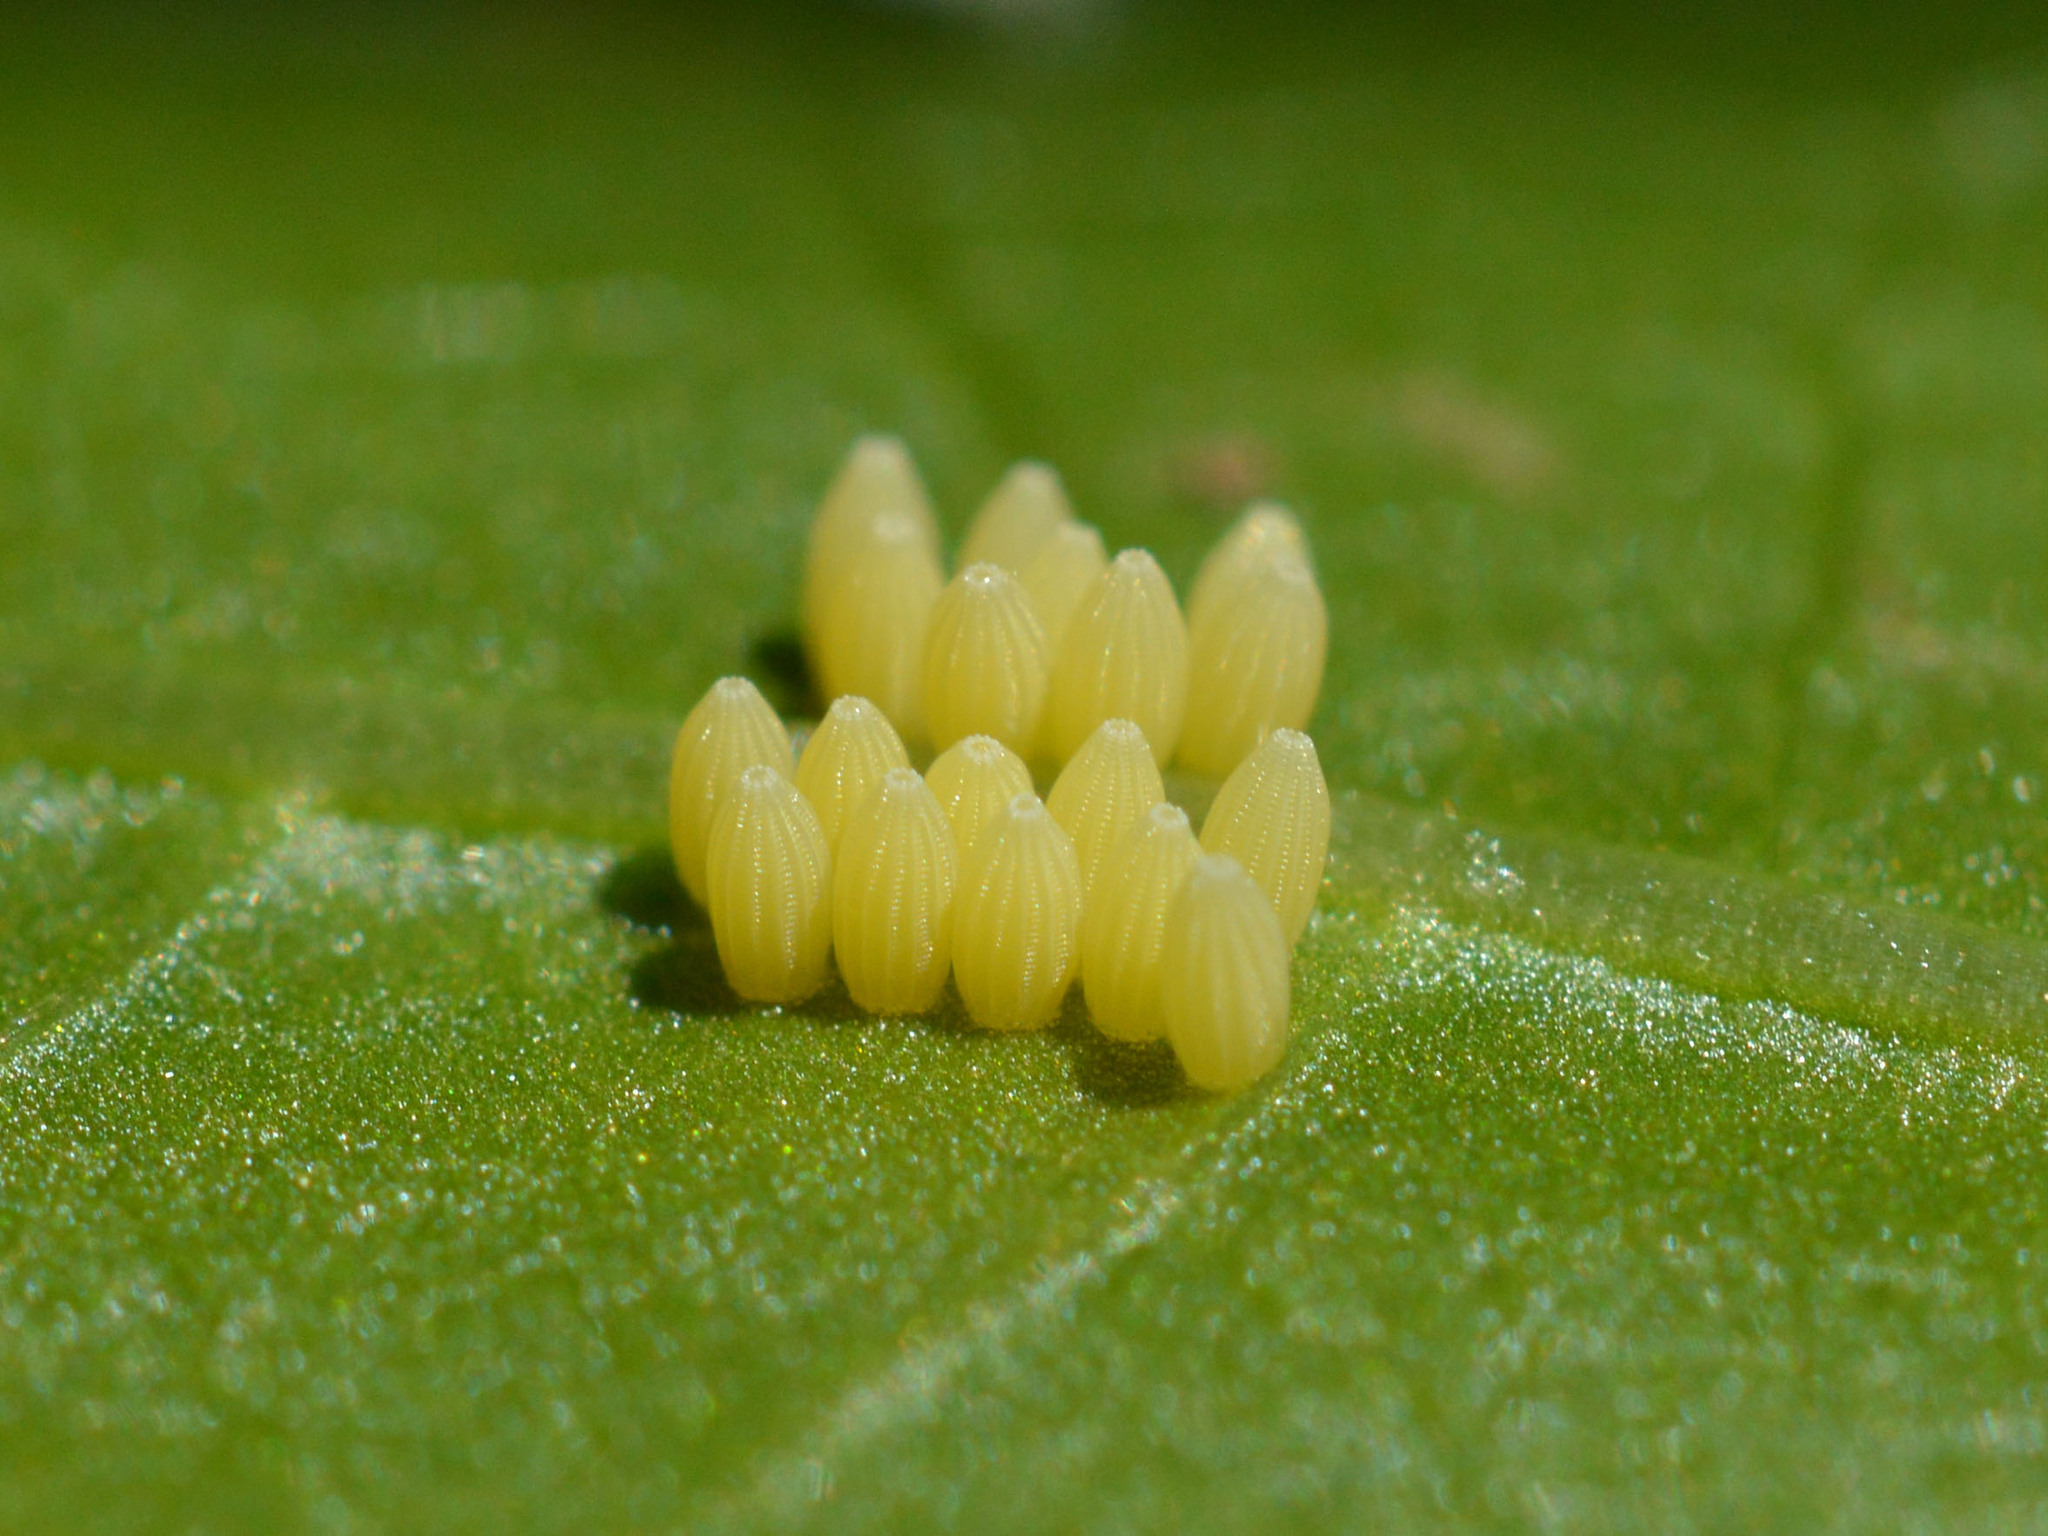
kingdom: Animalia
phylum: Arthropoda
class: Insecta
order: Lepidoptera
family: Pieridae
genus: Pieris
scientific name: Pieris brassicae
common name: Large white
